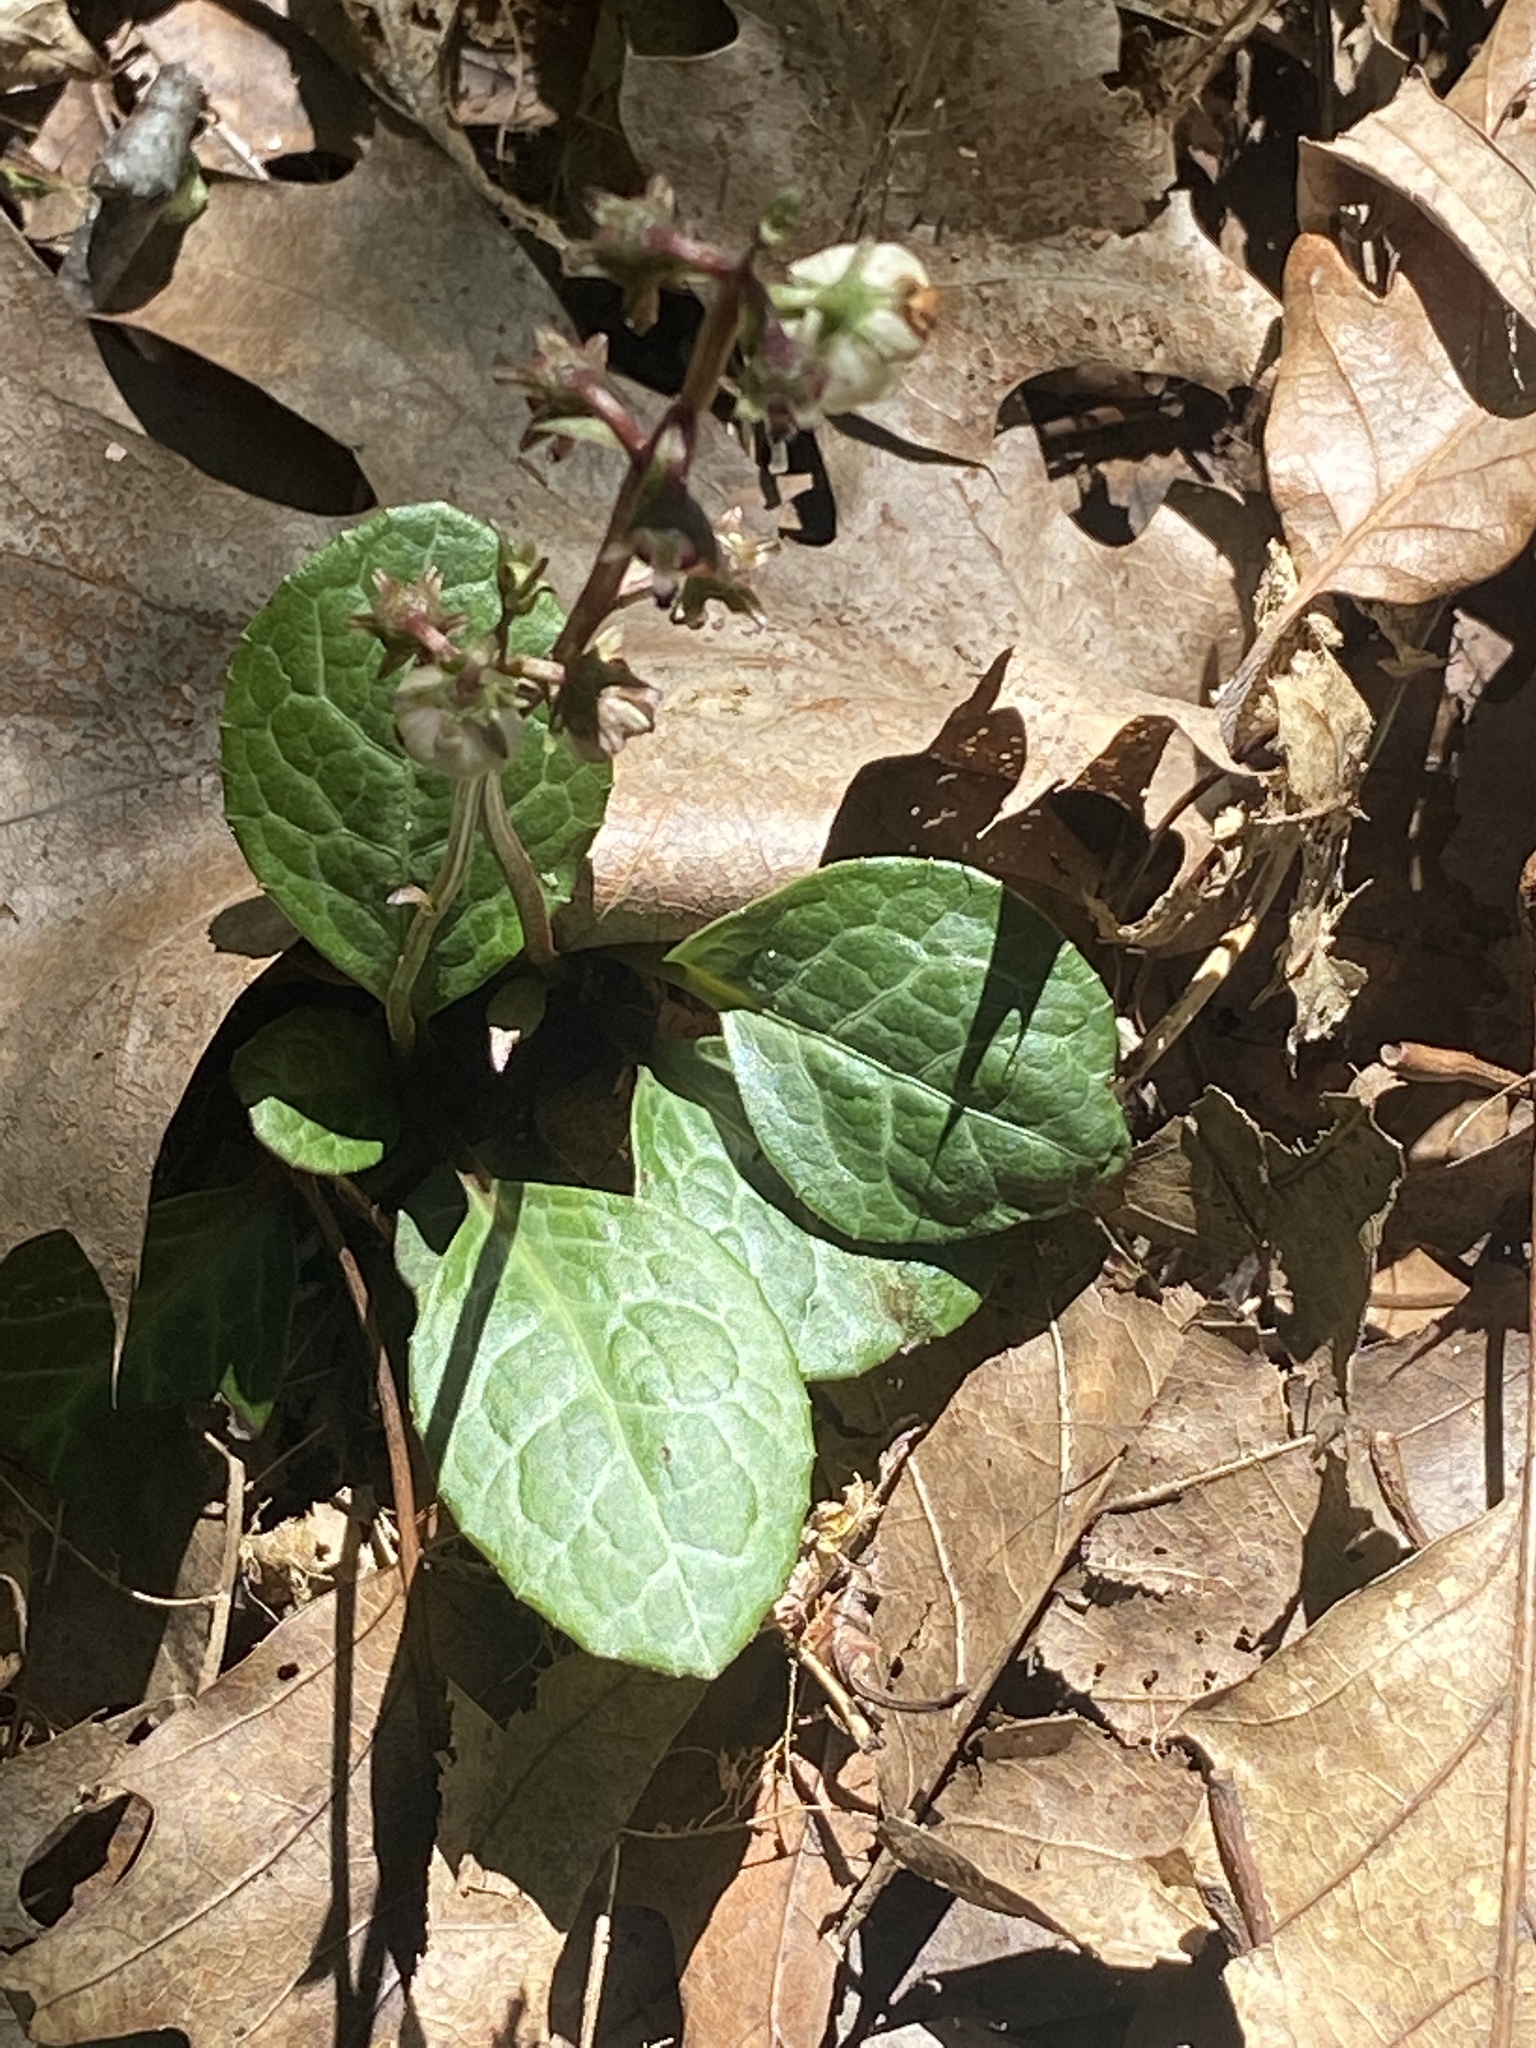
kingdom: Plantae
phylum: Tracheophyta
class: Magnoliopsida
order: Ericales
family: Ericaceae
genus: Pyrola
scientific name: Pyrola americana
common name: American wintergreen
